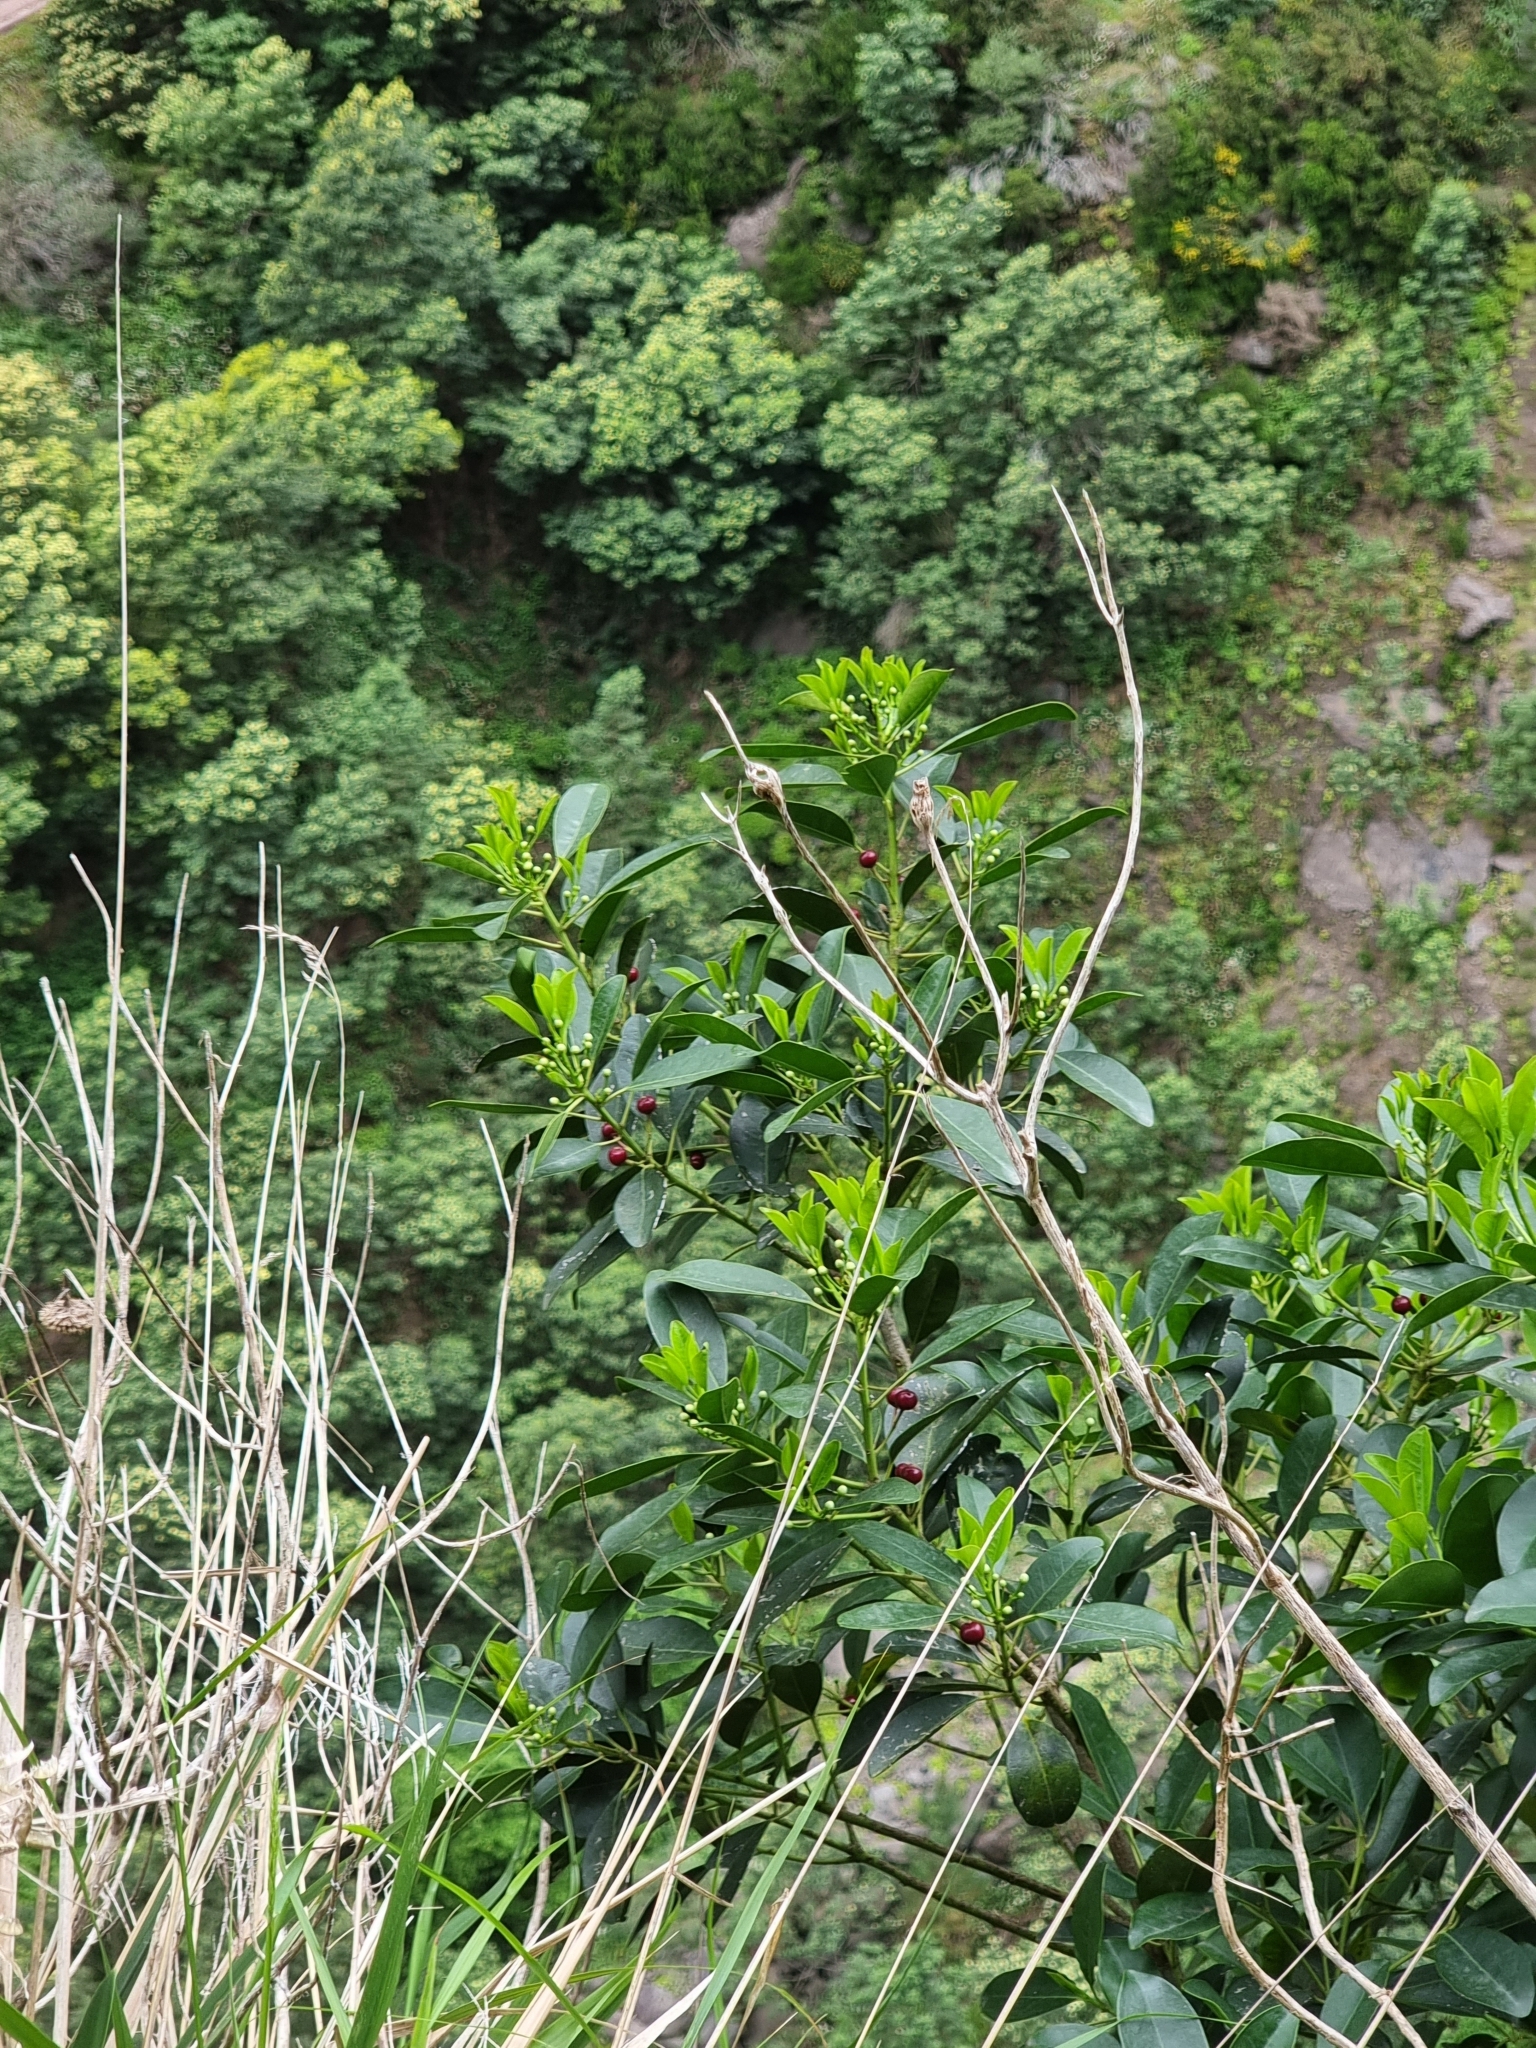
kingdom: Plantae
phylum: Tracheophyta
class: Magnoliopsida
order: Aquifoliales
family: Aquifoliaceae
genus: Ilex
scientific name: Ilex canariensis
